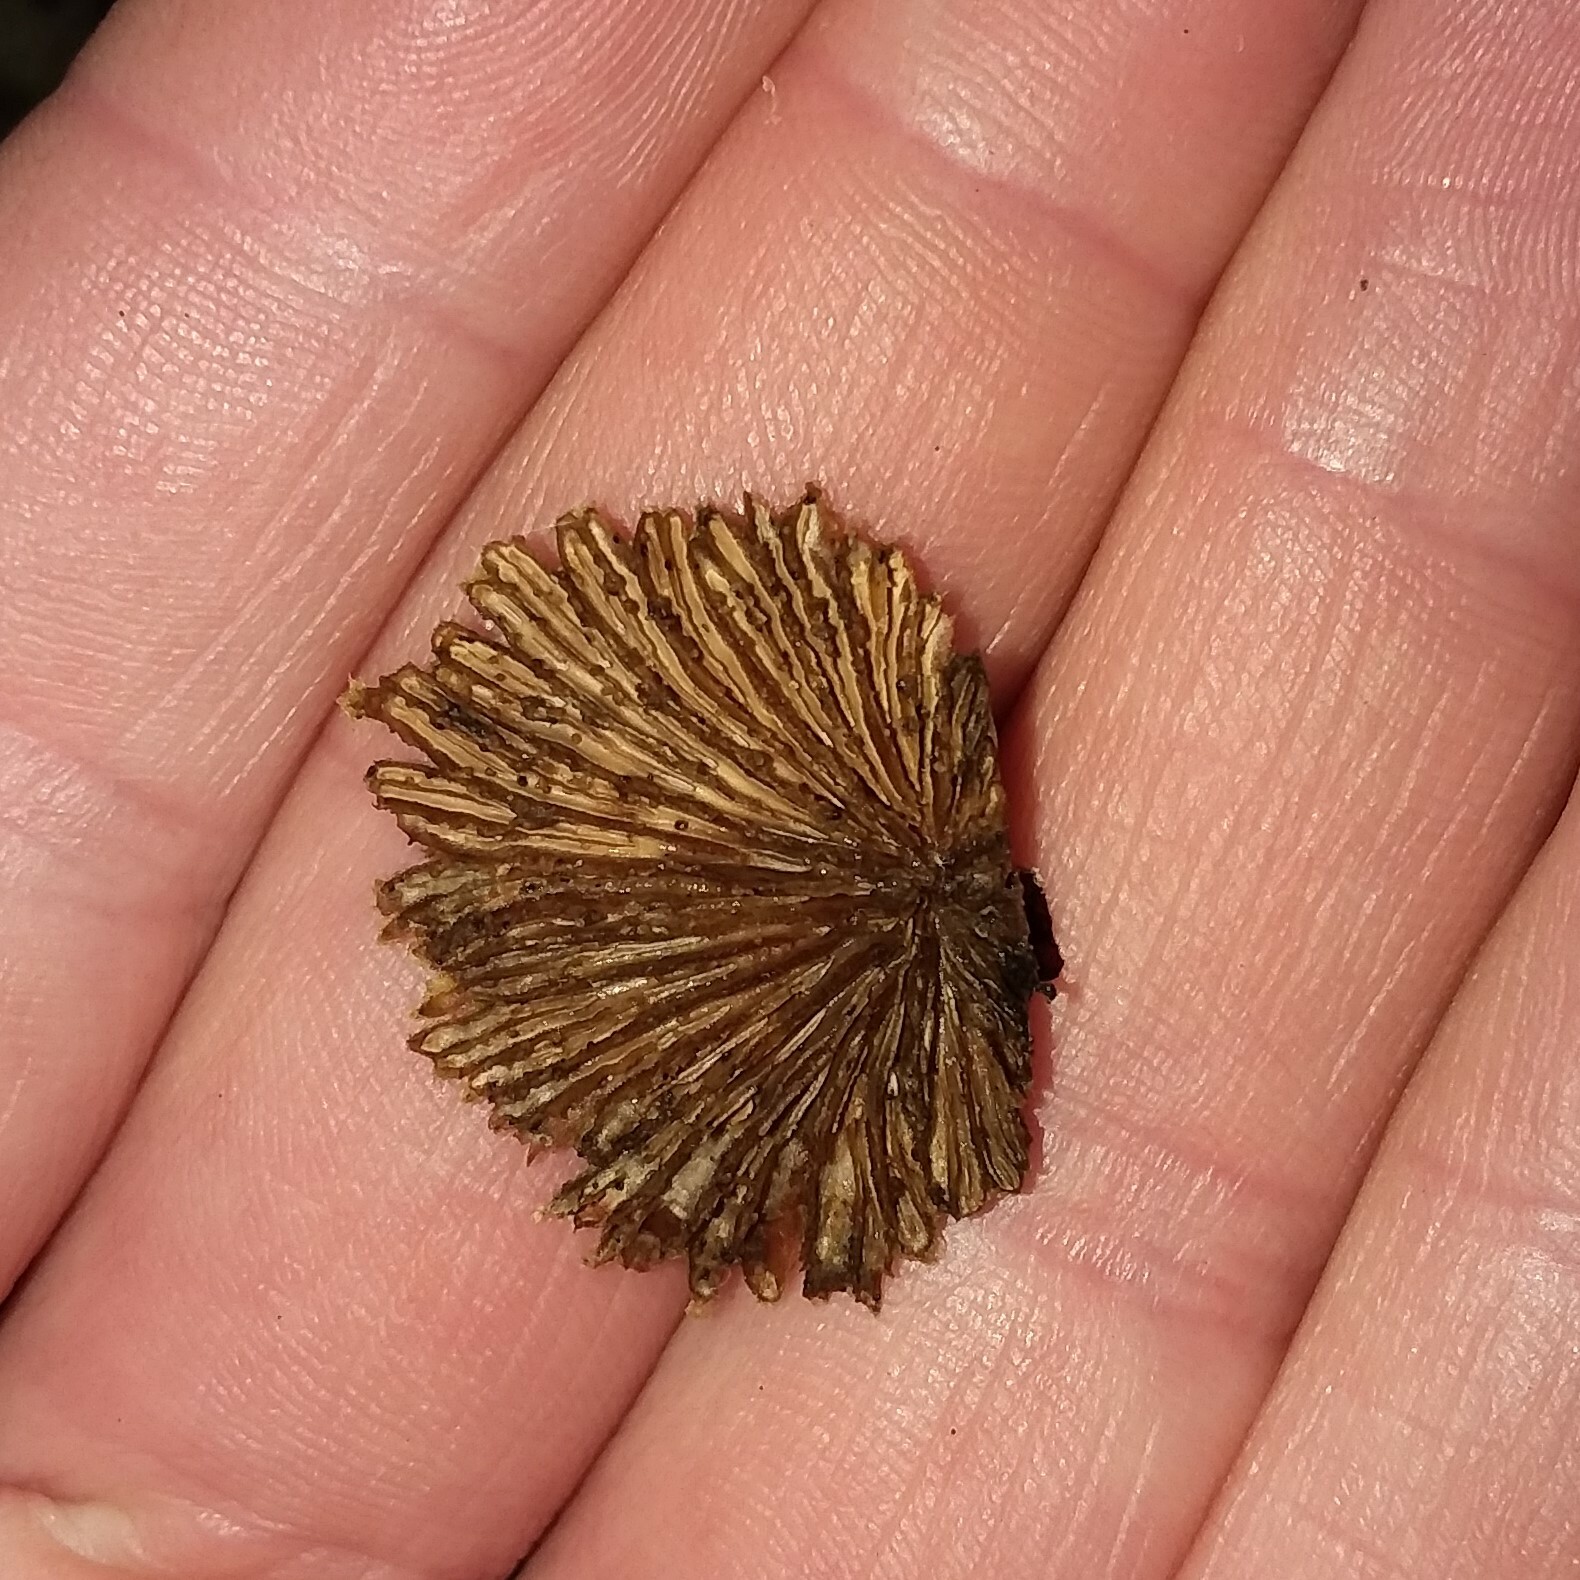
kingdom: Fungi
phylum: Basidiomycota
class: Agaricomycetes
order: Agaricales
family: Schizophyllaceae
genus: Schizophyllum
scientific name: Schizophyllum commune
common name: Common porecrust
